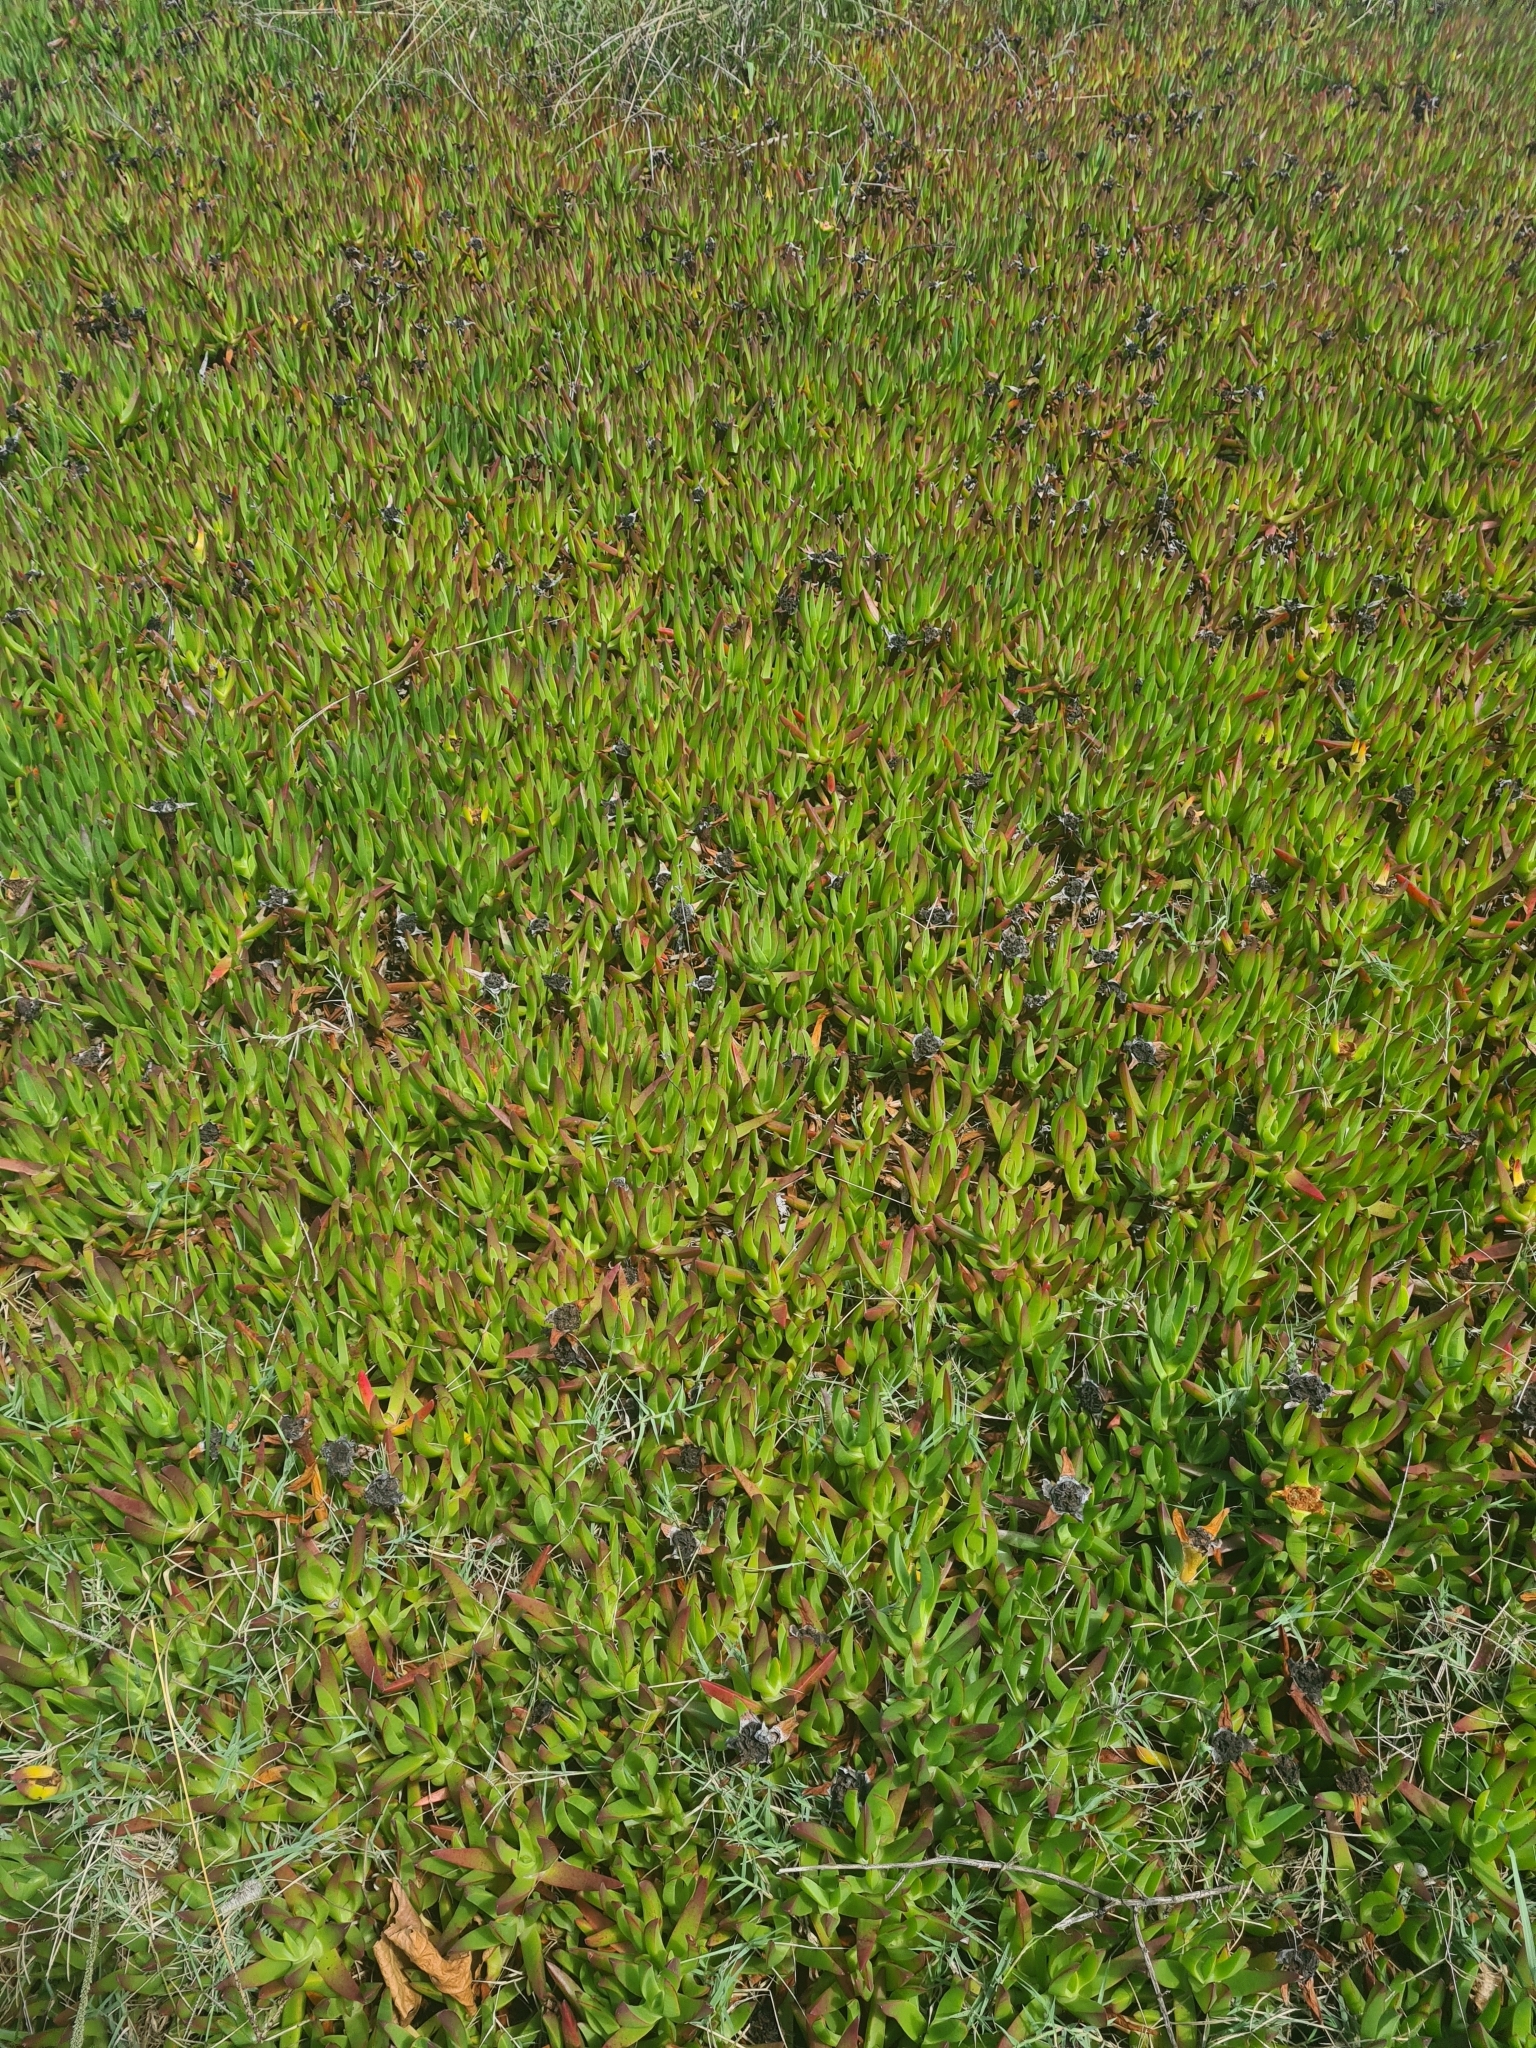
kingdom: Plantae
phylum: Tracheophyta
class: Magnoliopsida
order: Caryophyllales
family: Aizoaceae
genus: Carpobrotus
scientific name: Carpobrotus edulis
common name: Hottentot-fig
